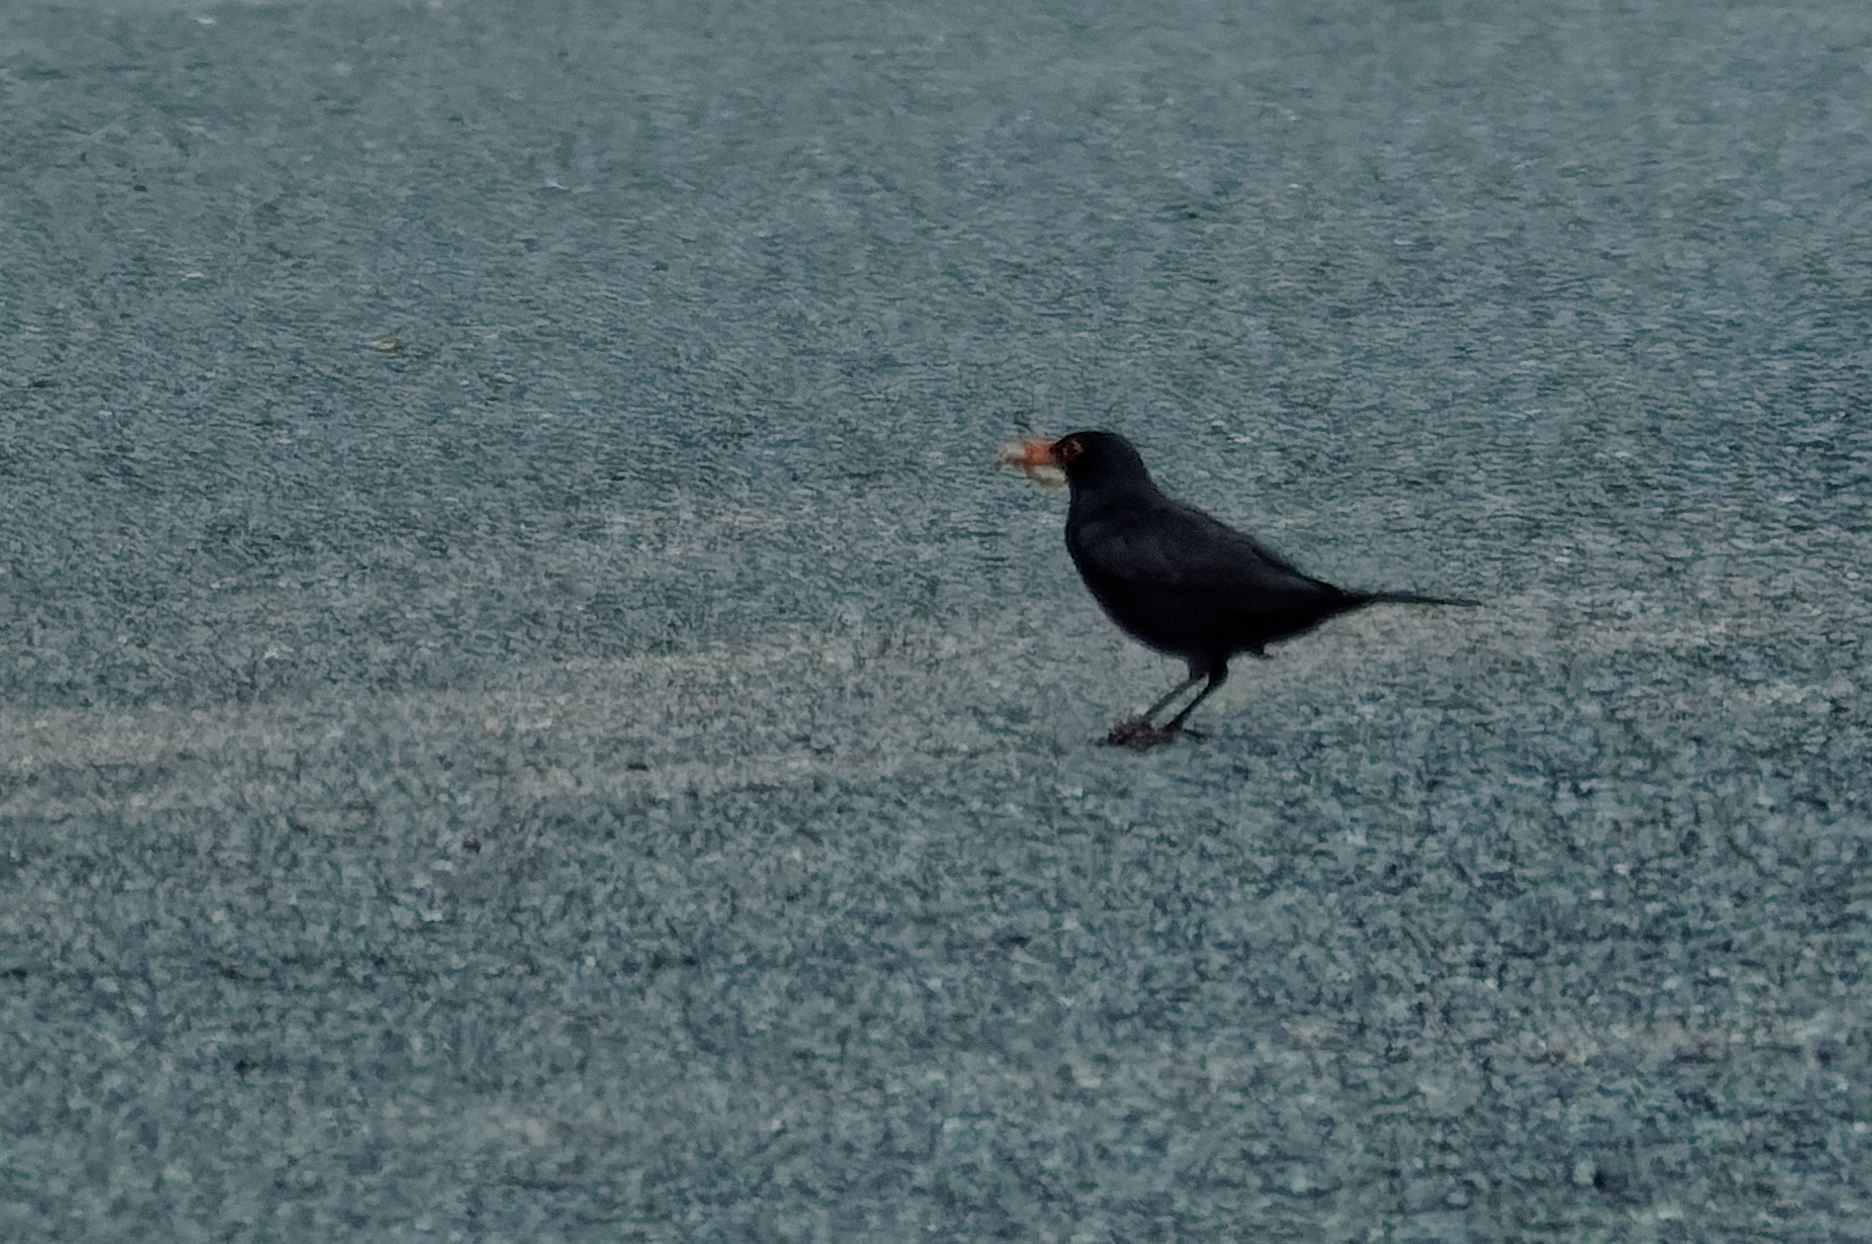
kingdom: Animalia
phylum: Chordata
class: Aves
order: Passeriformes
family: Turdidae
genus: Turdus
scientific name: Turdus merula
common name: Common blackbird
